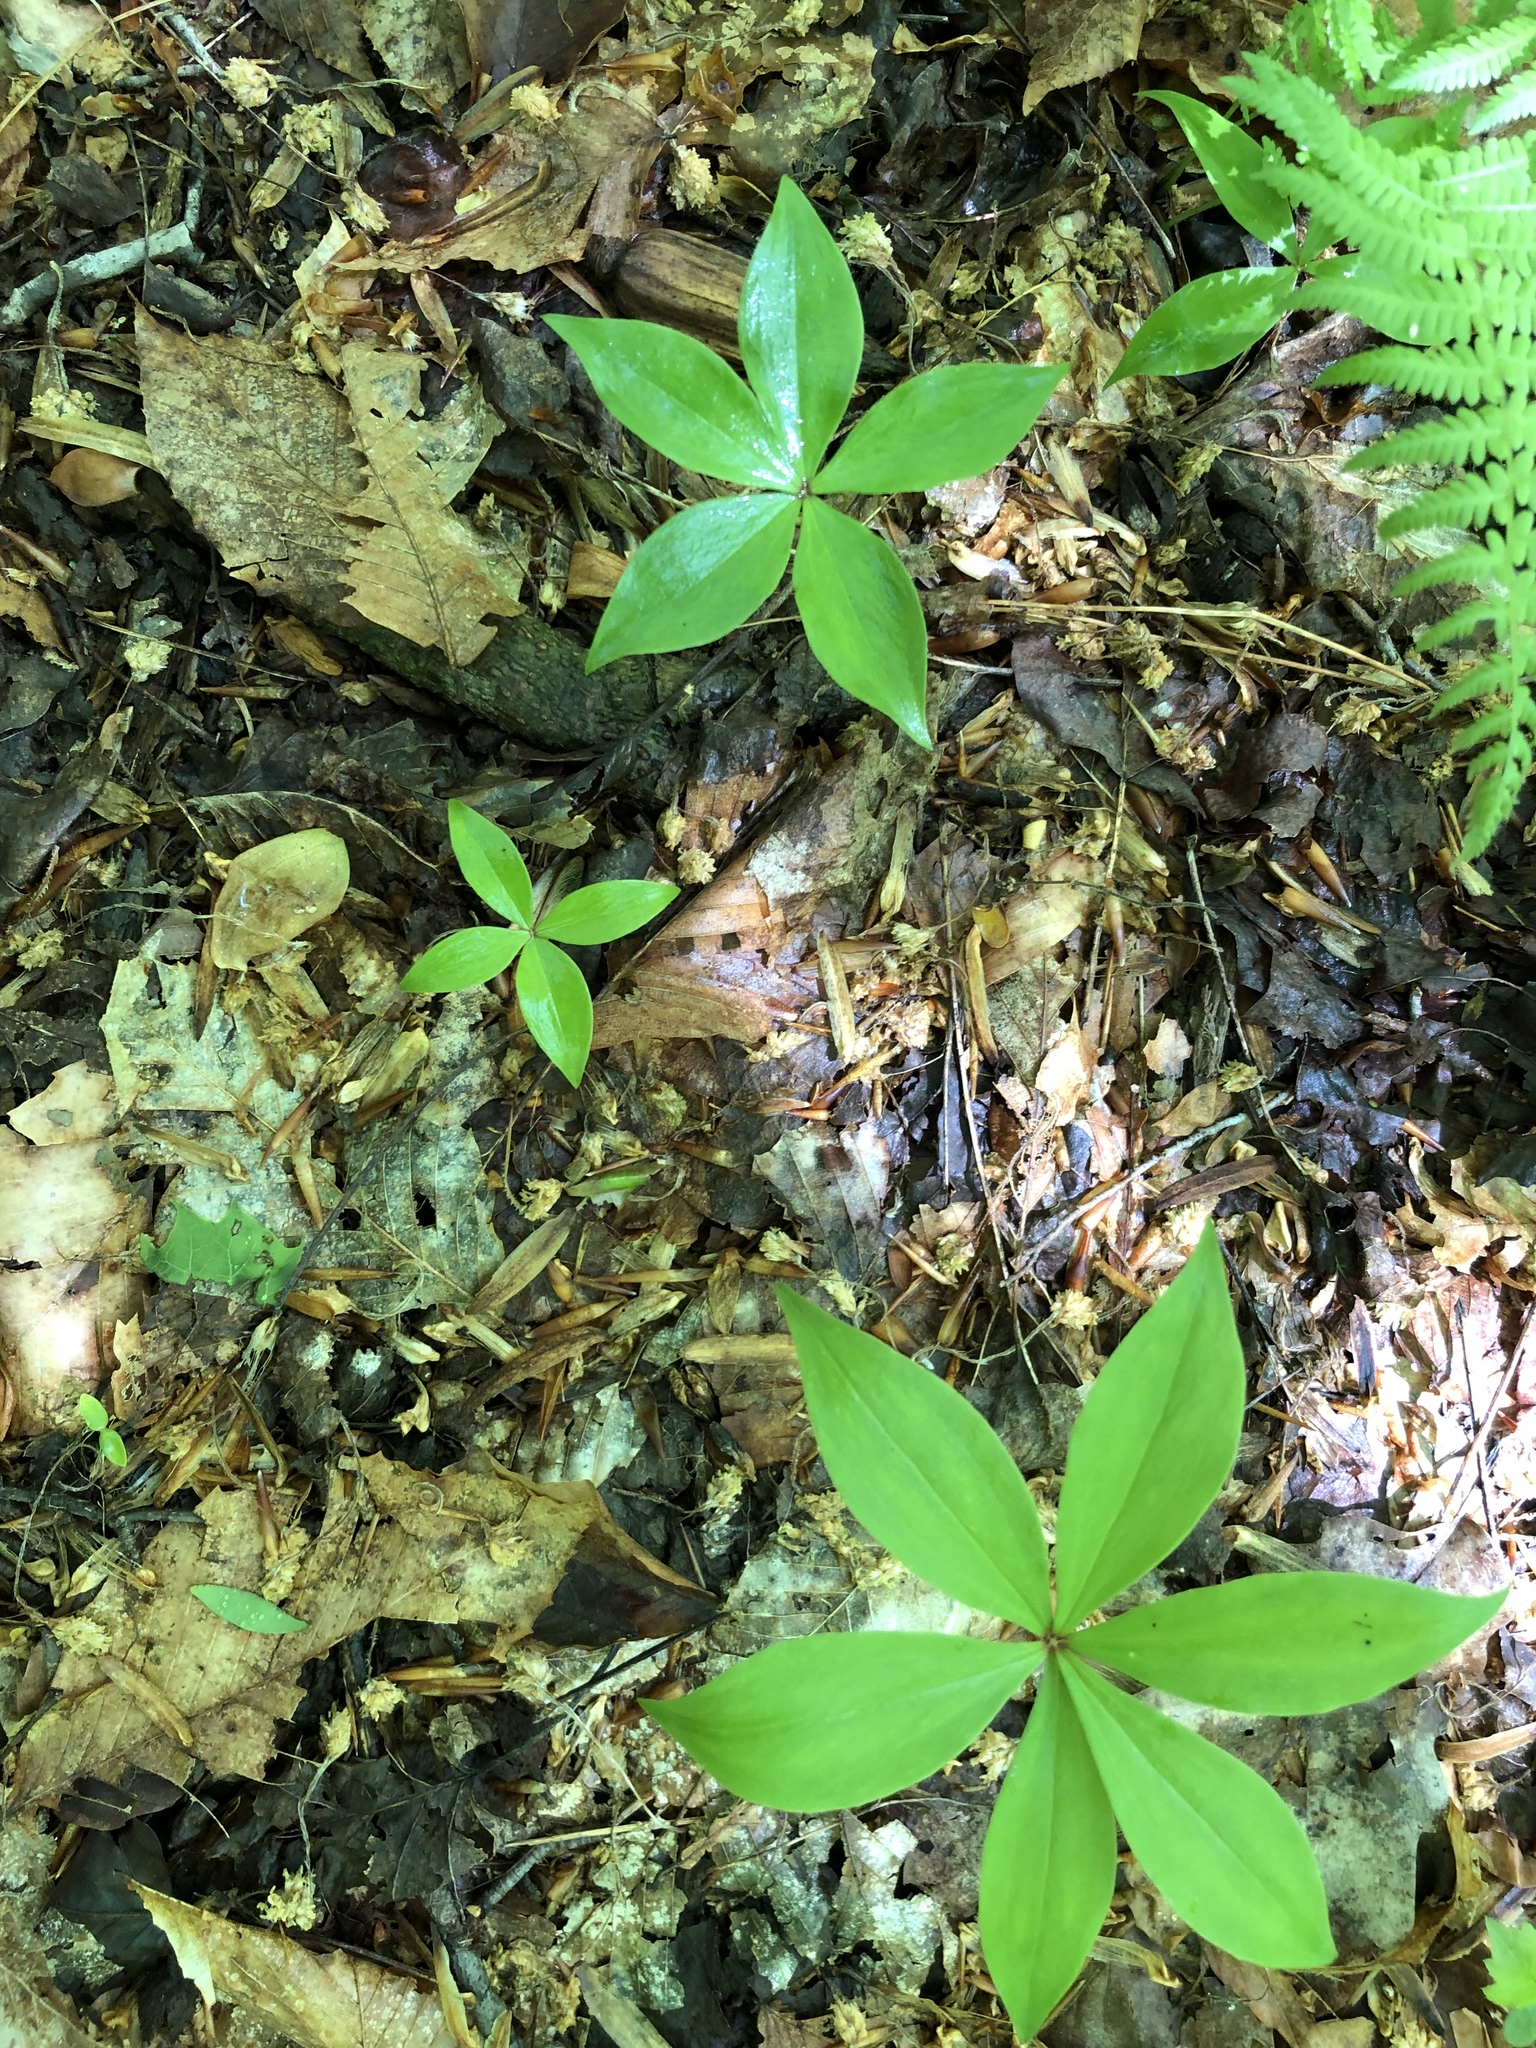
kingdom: Plantae
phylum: Tracheophyta
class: Liliopsida
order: Liliales
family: Liliaceae
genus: Medeola
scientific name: Medeola virginiana
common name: Indian cucumber-root
